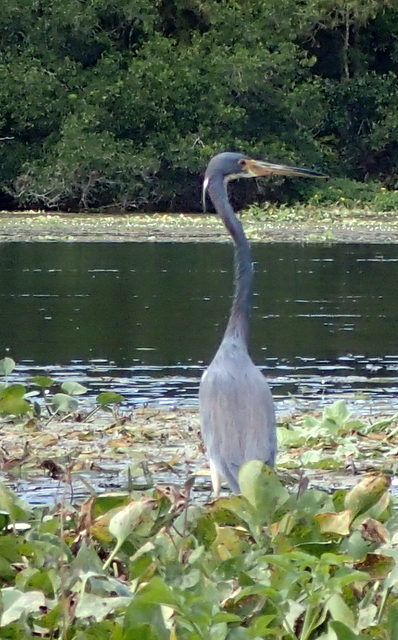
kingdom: Animalia
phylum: Chordata
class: Aves
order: Pelecaniformes
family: Ardeidae
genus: Egretta
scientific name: Egretta tricolor
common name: Tricolored heron
